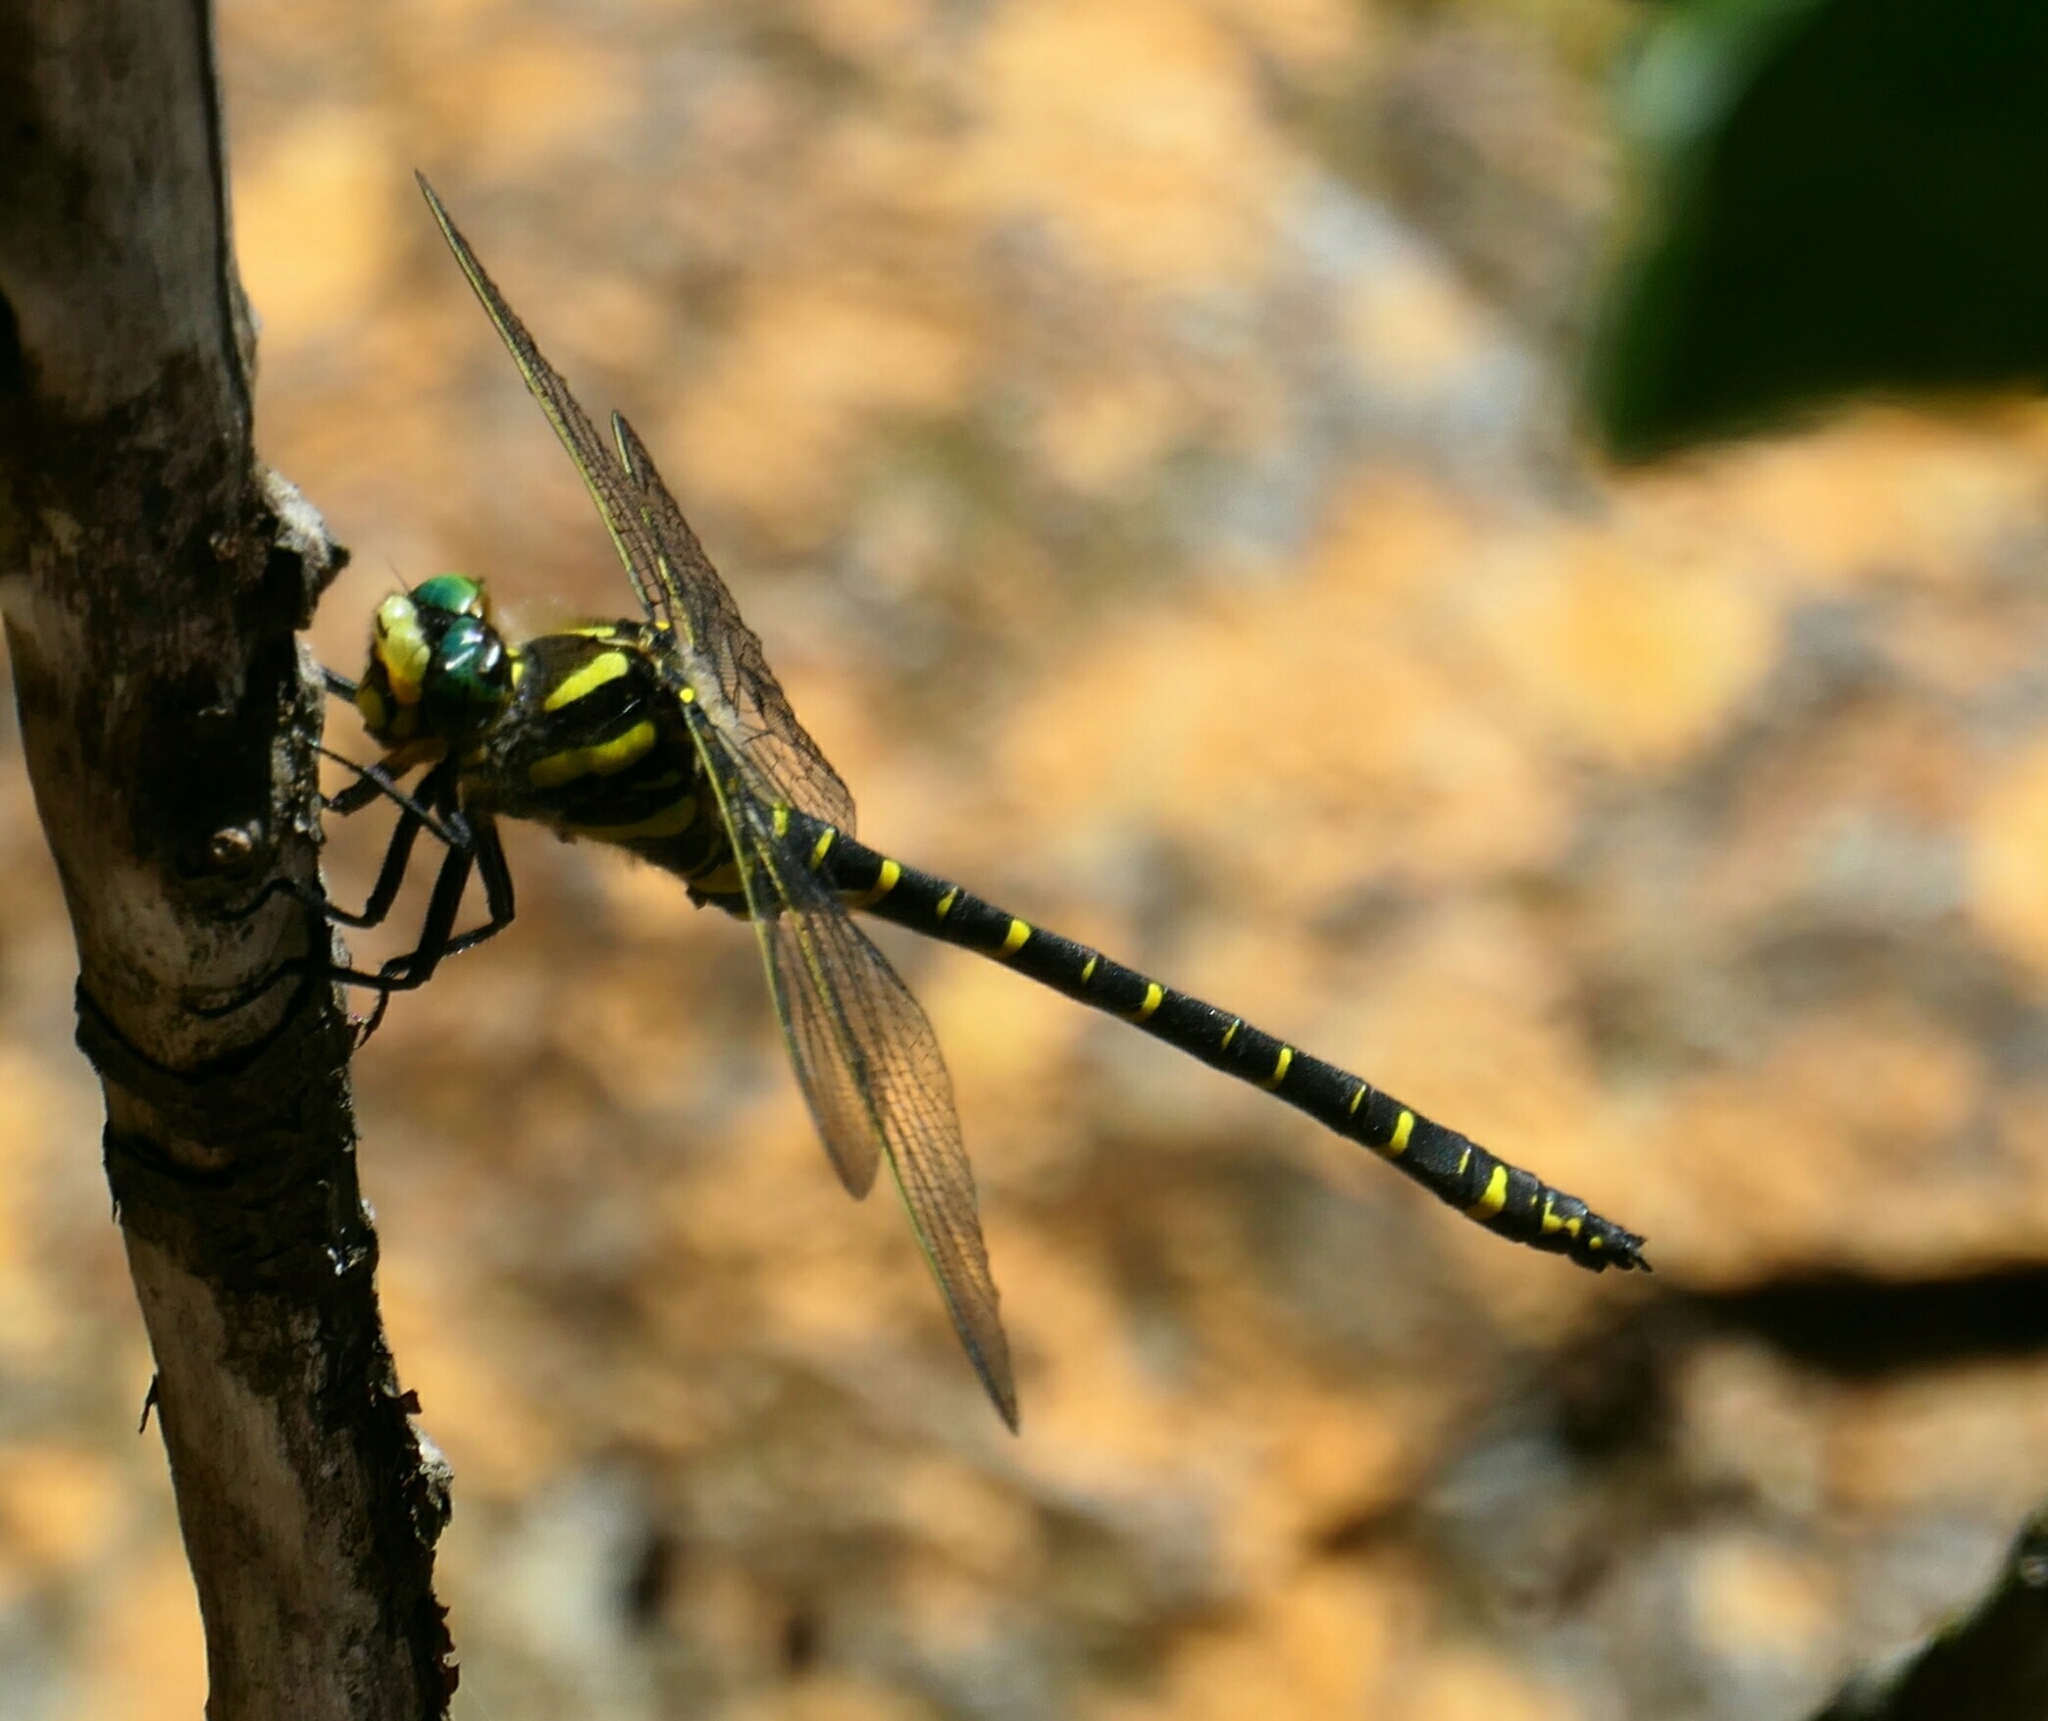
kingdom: Animalia
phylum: Arthropoda
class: Insecta
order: Odonata
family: Cordulegastridae
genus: Cordulegaster
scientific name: Cordulegaster boltonii
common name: Golden-ringed dragonfly
